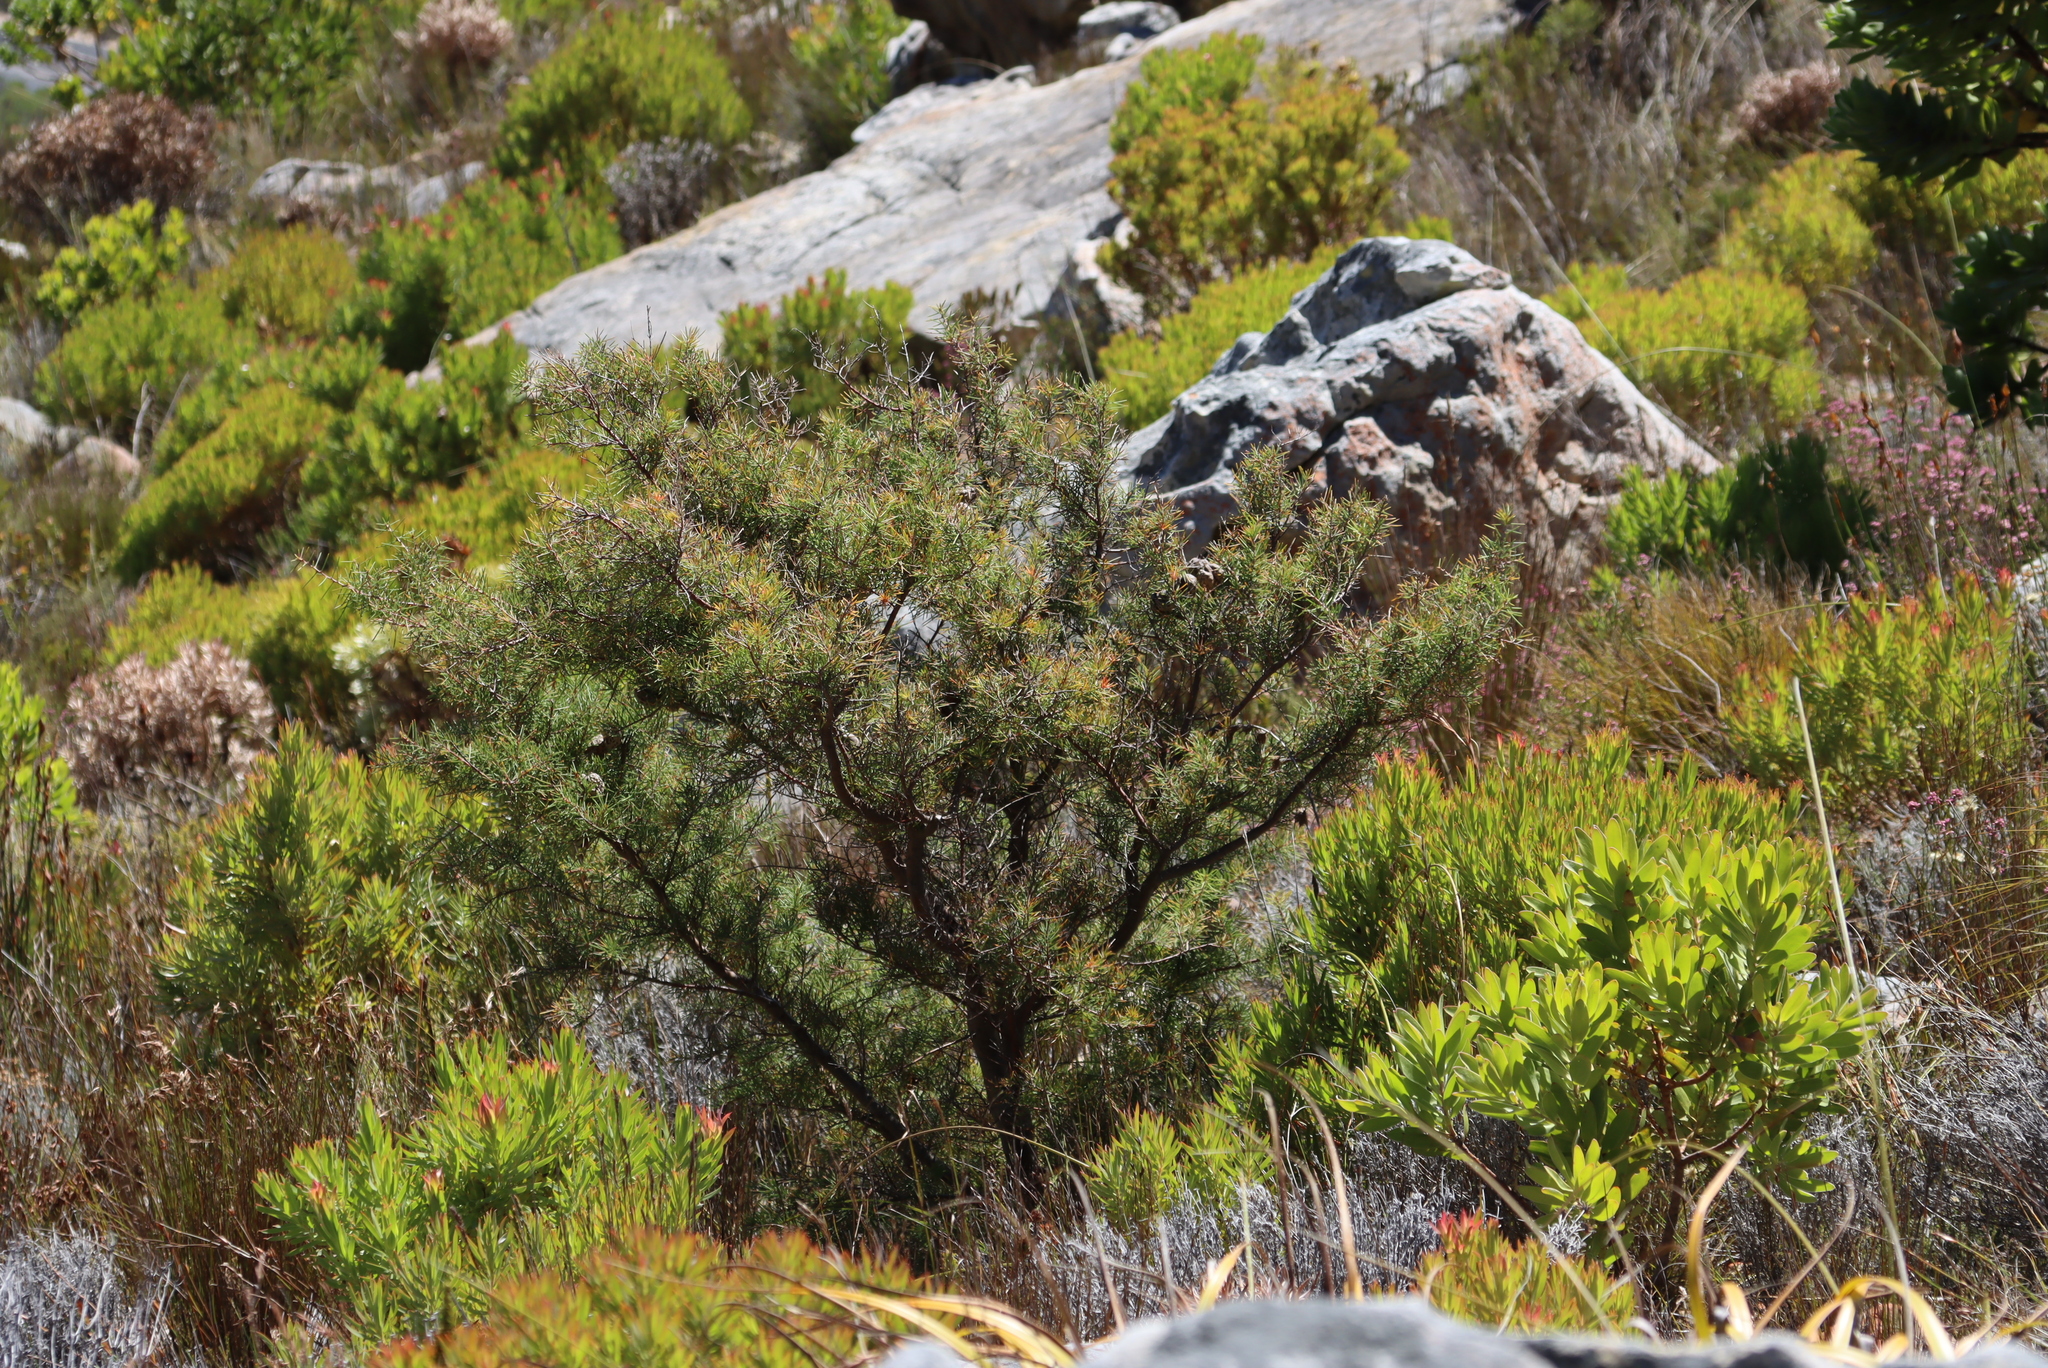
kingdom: Plantae
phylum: Tracheophyta
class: Magnoliopsida
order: Proteales
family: Proteaceae
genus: Hakea
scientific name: Hakea sericea
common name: Needle bush
